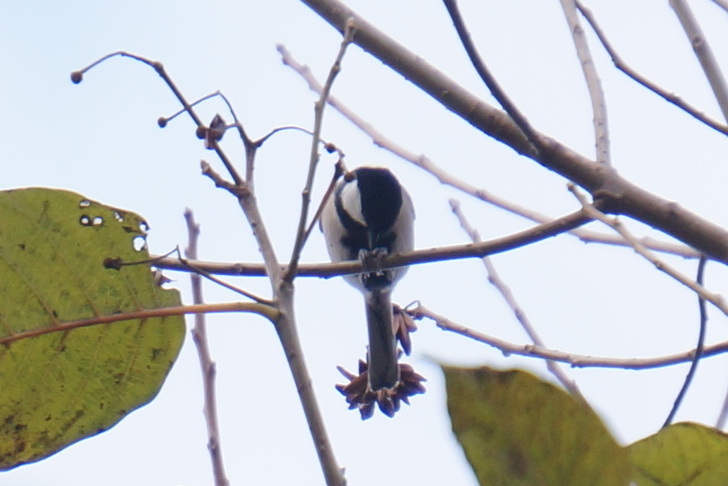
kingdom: Animalia
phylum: Chordata
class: Aves
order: Passeriformes
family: Paridae
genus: Parus
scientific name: Parus minor
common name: Japanese tit
